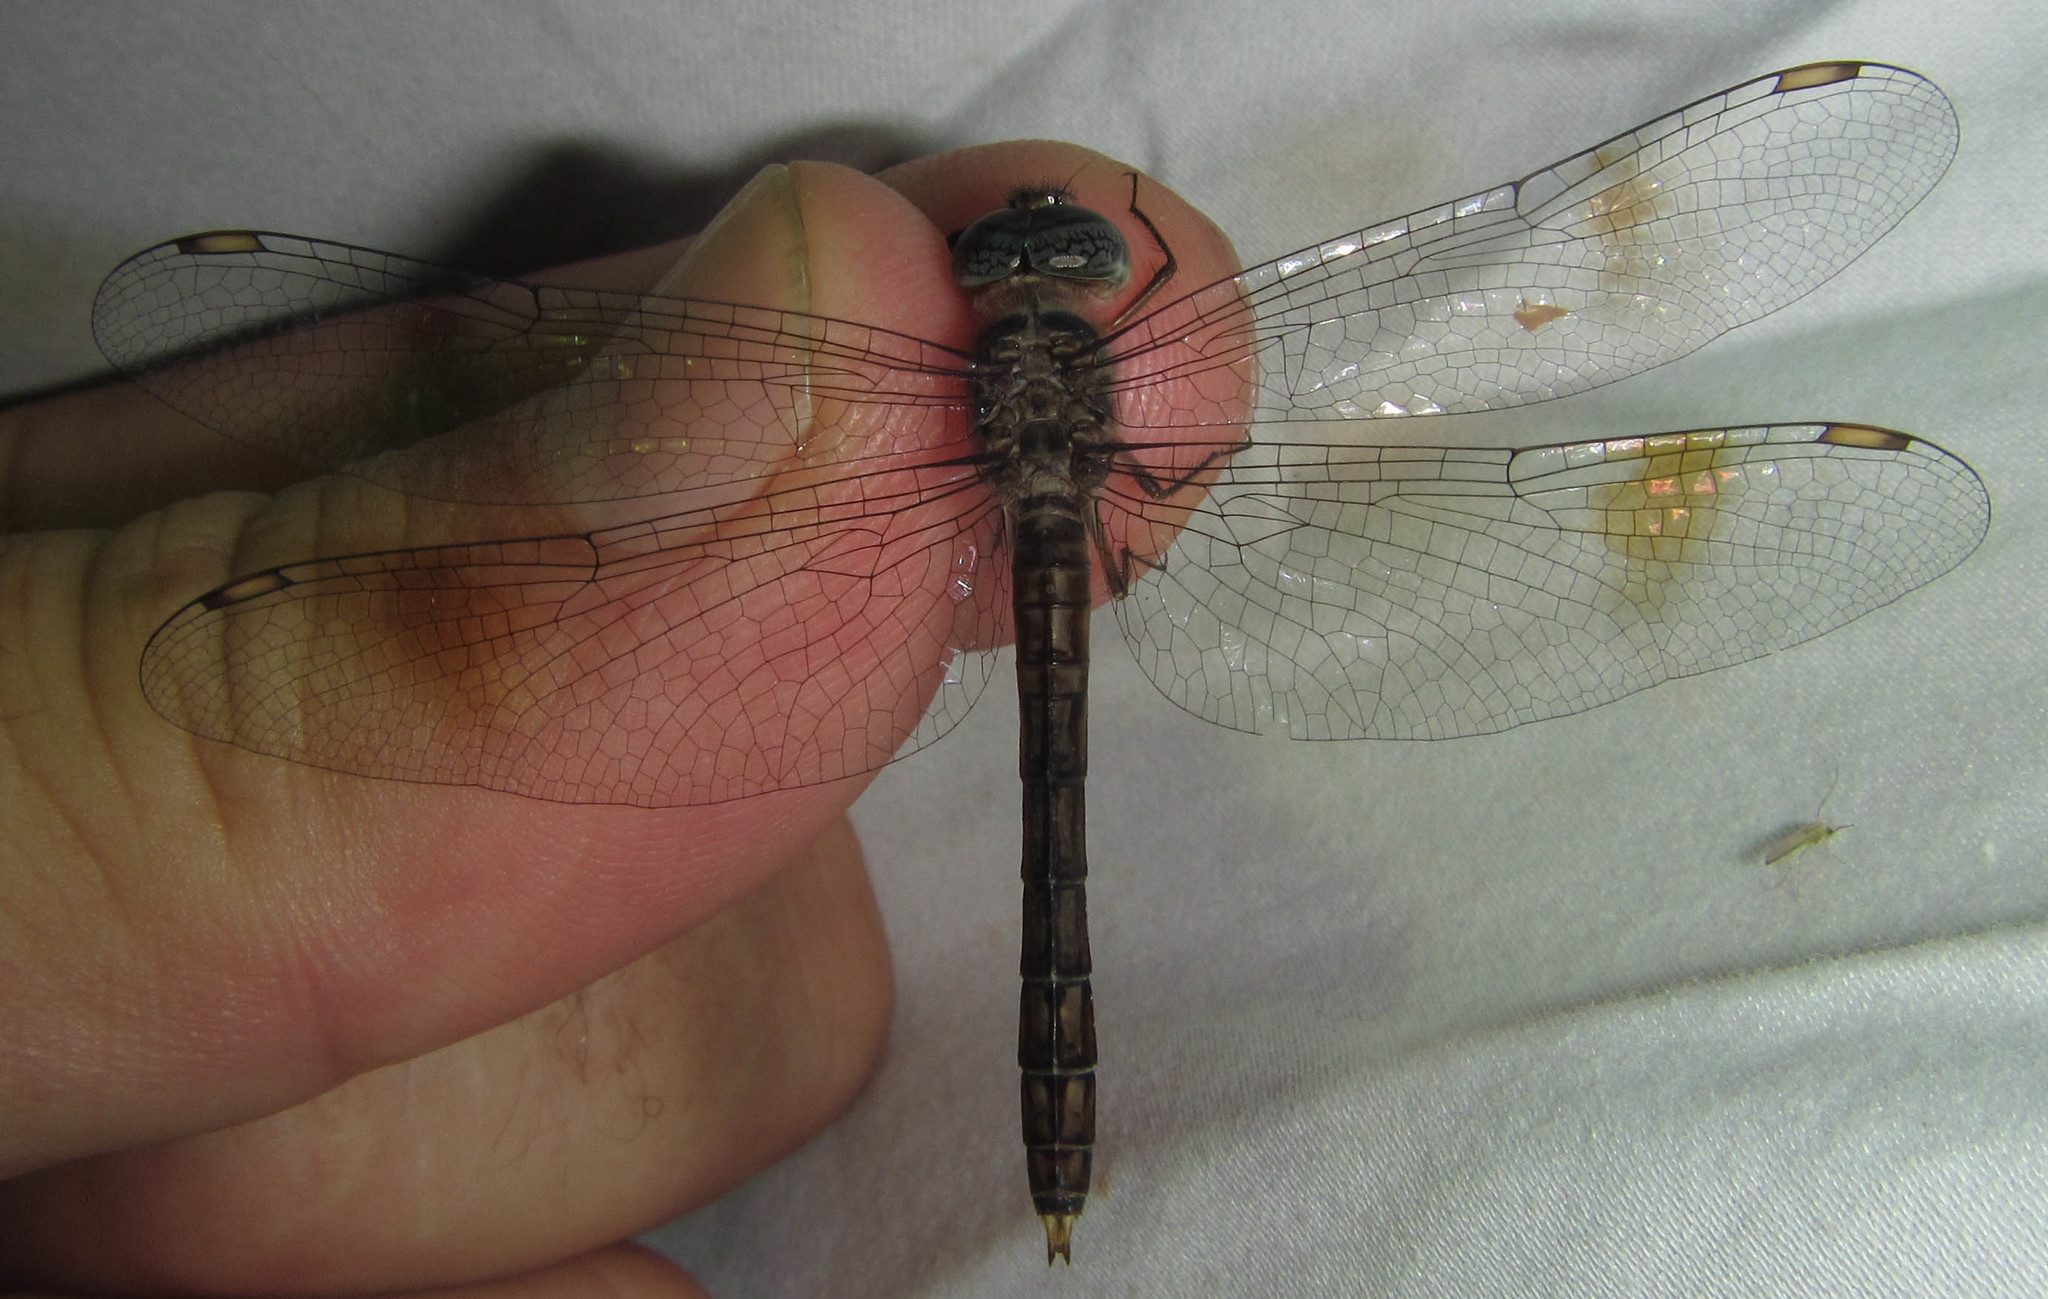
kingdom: Animalia
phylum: Arthropoda
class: Insecta
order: Odonata
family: Libellulidae
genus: Parazyxomma
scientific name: Parazyxomma flavicans
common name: Banded duskdarter
